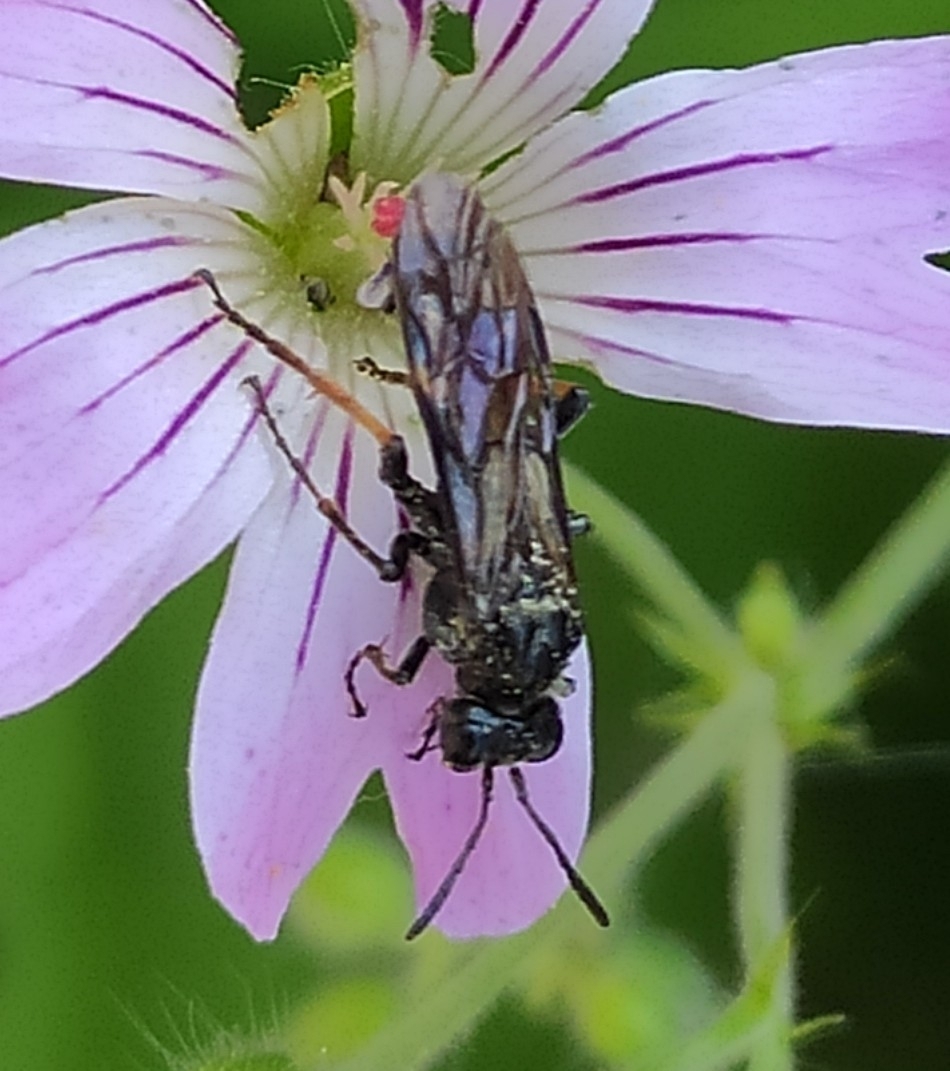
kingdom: Animalia
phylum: Arthropoda
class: Insecta
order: Hymenoptera
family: Tenthredinidae
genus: Tenthredo
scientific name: Tenthredo radoszkowskii
